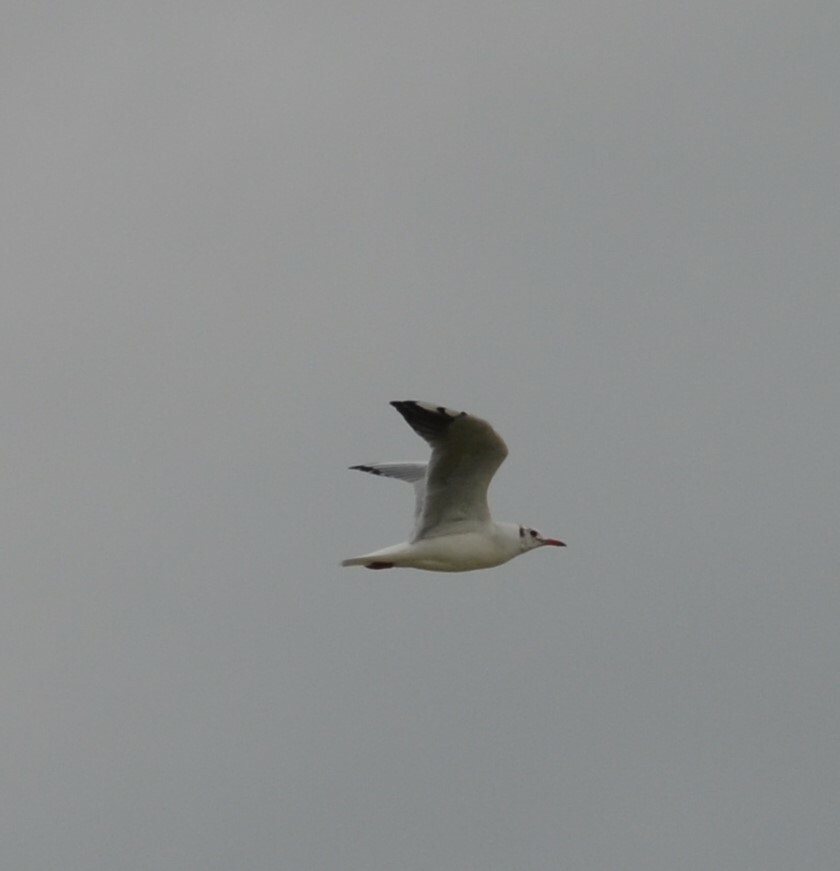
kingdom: Animalia
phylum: Chordata
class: Aves
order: Charadriiformes
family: Laridae
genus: Chroicocephalus
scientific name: Chroicocephalus ridibundus
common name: Black-headed gull
